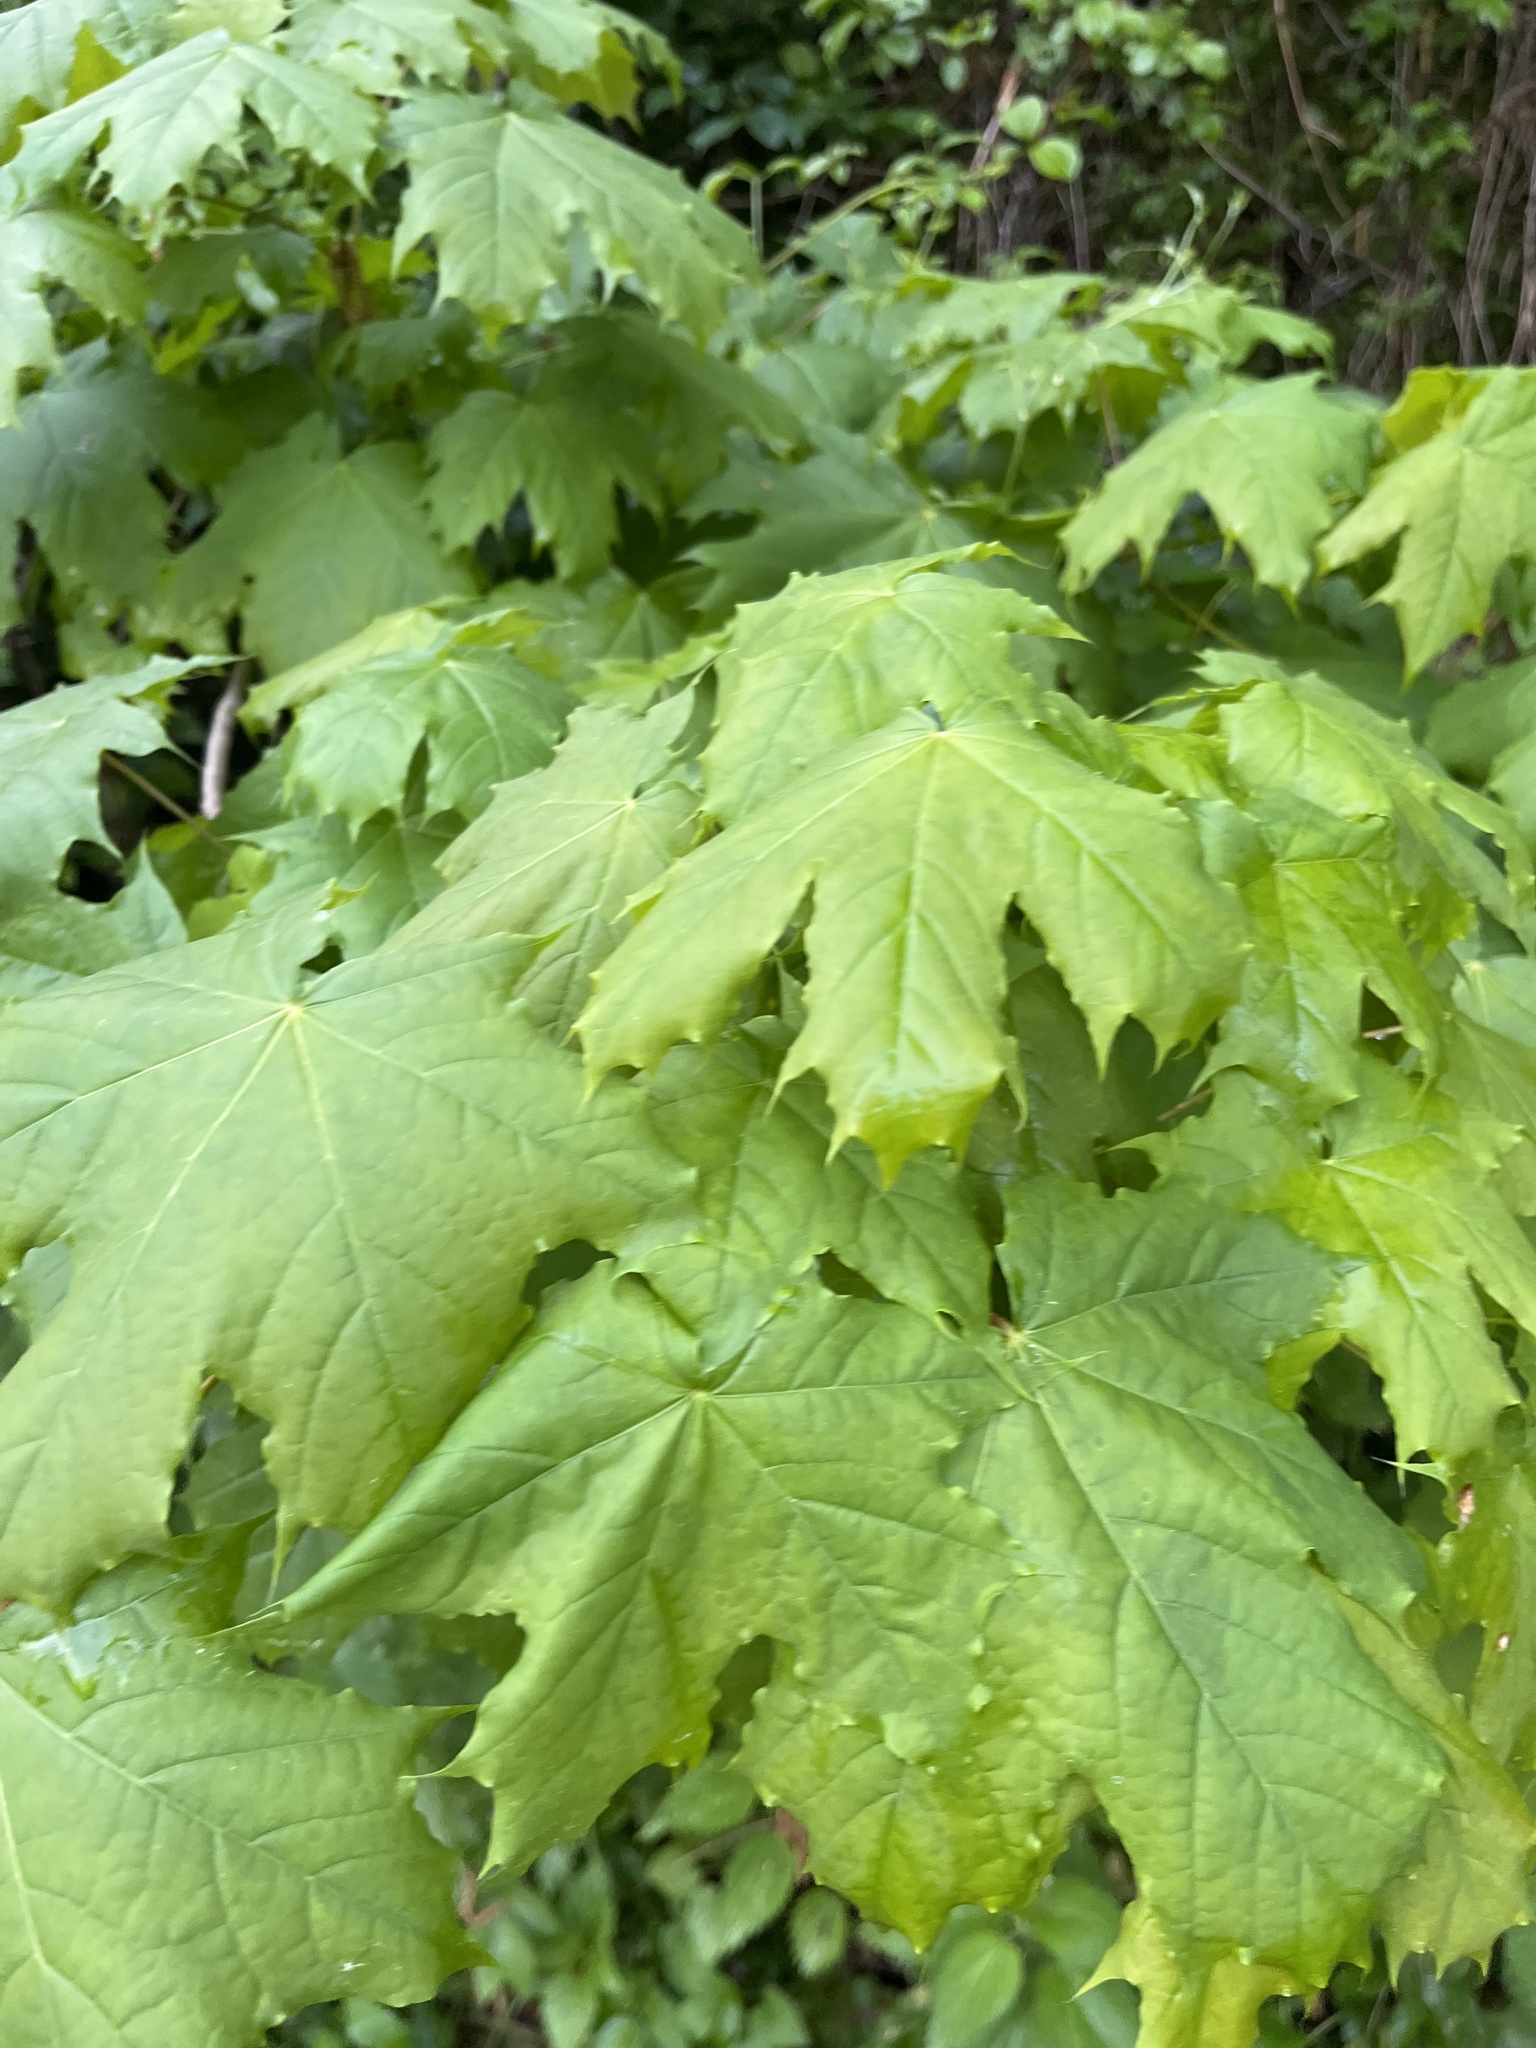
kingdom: Plantae
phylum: Tracheophyta
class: Magnoliopsida
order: Sapindales
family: Sapindaceae
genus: Acer
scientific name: Acer platanoides
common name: Norway maple
